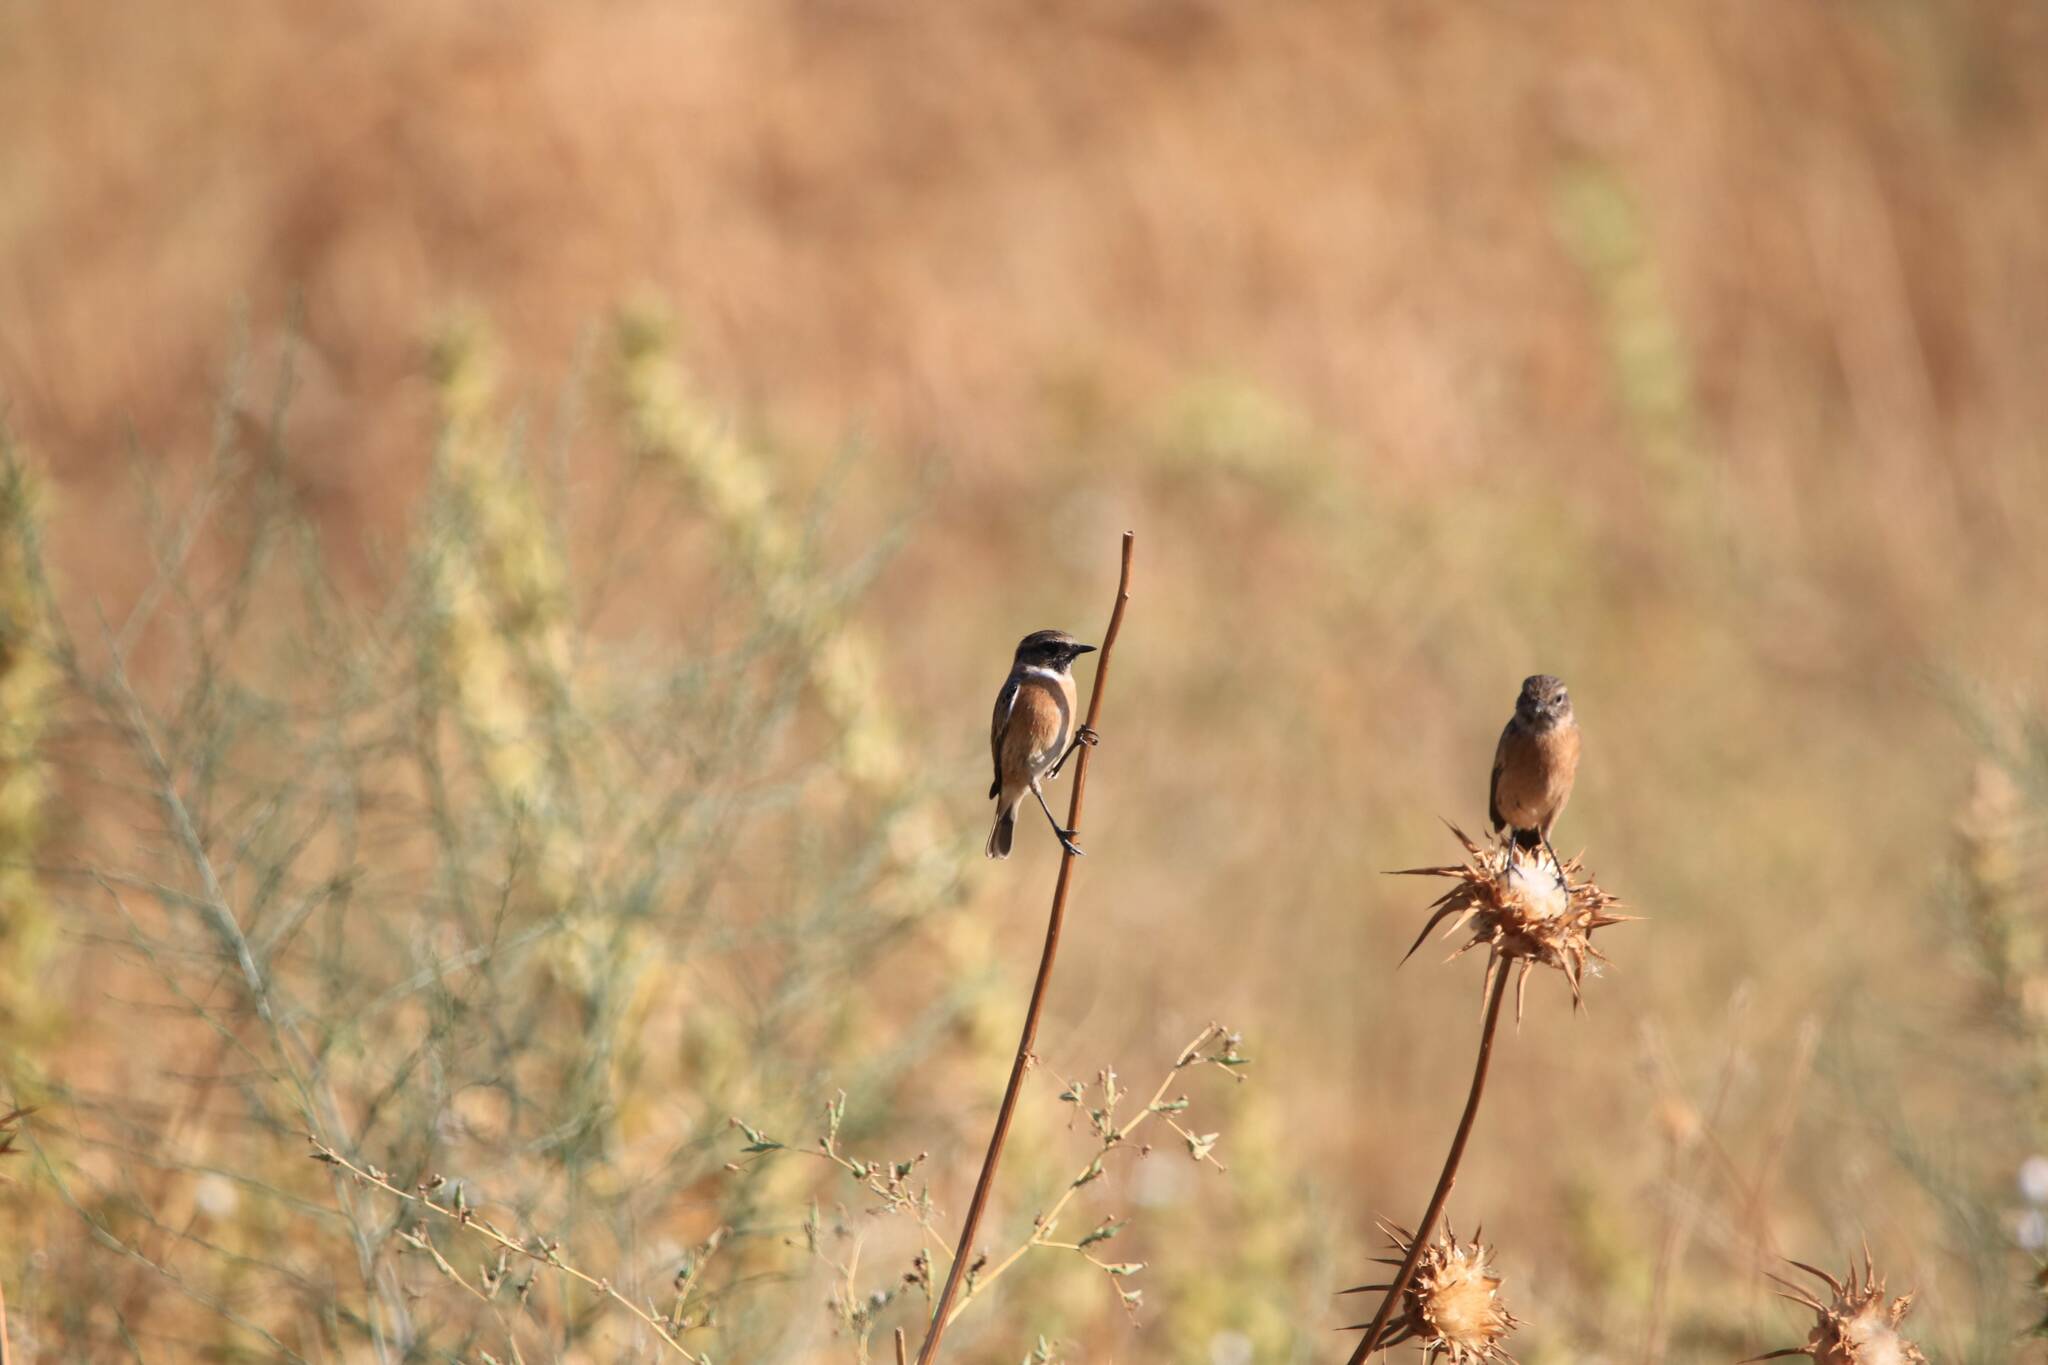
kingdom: Animalia
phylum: Chordata
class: Aves
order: Passeriformes
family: Muscicapidae
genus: Saxicola
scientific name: Saxicola rubicola
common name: European stonechat
